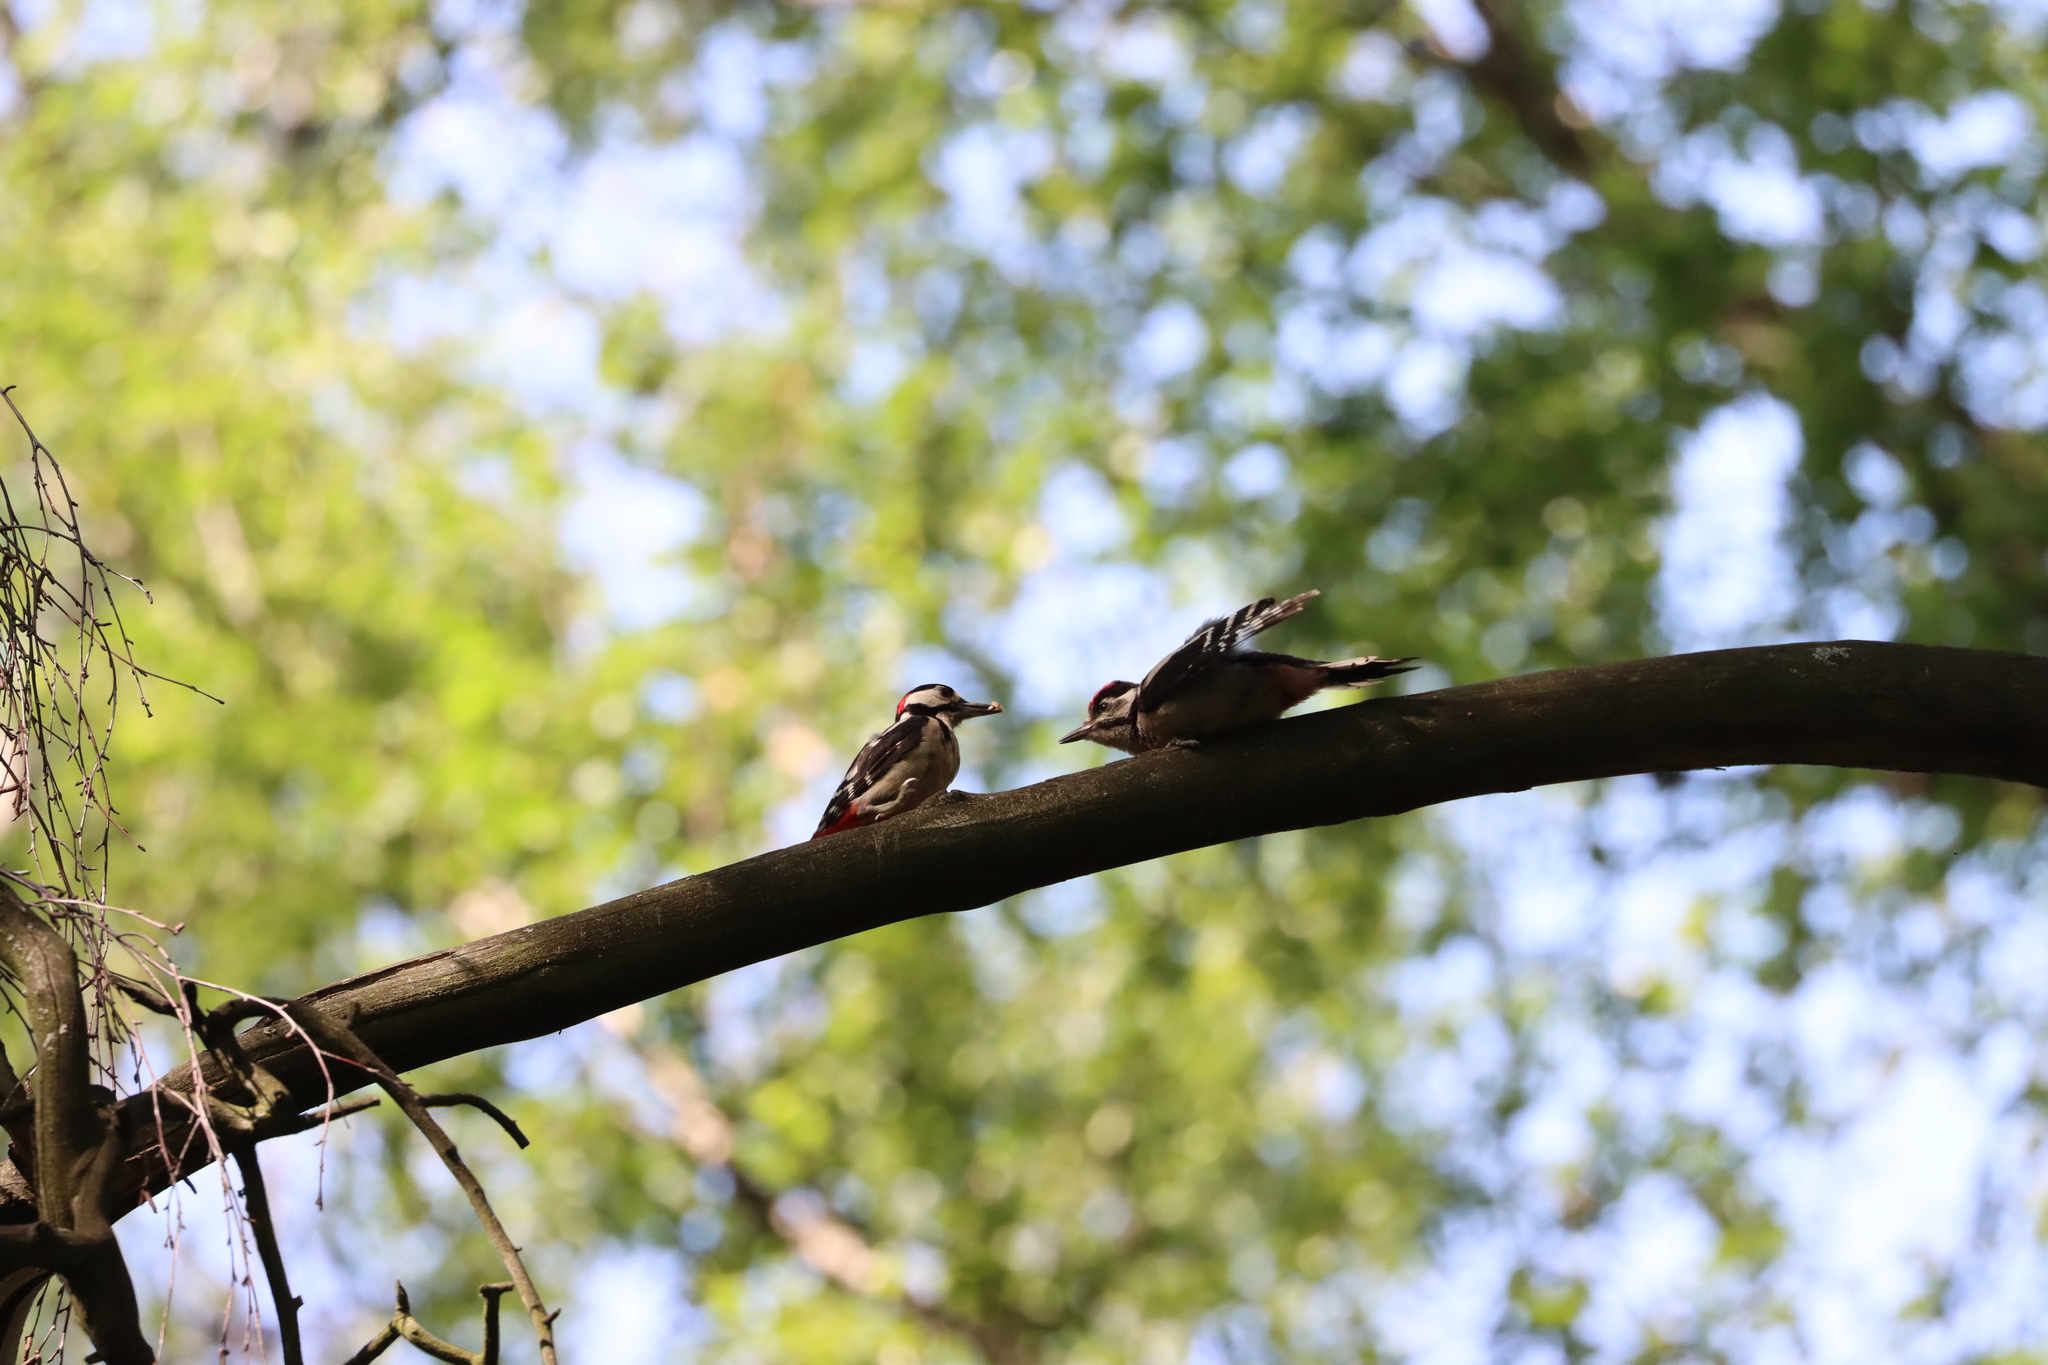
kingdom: Animalia
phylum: Chordata
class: Aves
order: Piciformes
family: Picidae
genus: Dendrocopos
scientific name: Dendrocopos major
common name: Great spotted woodpecker
